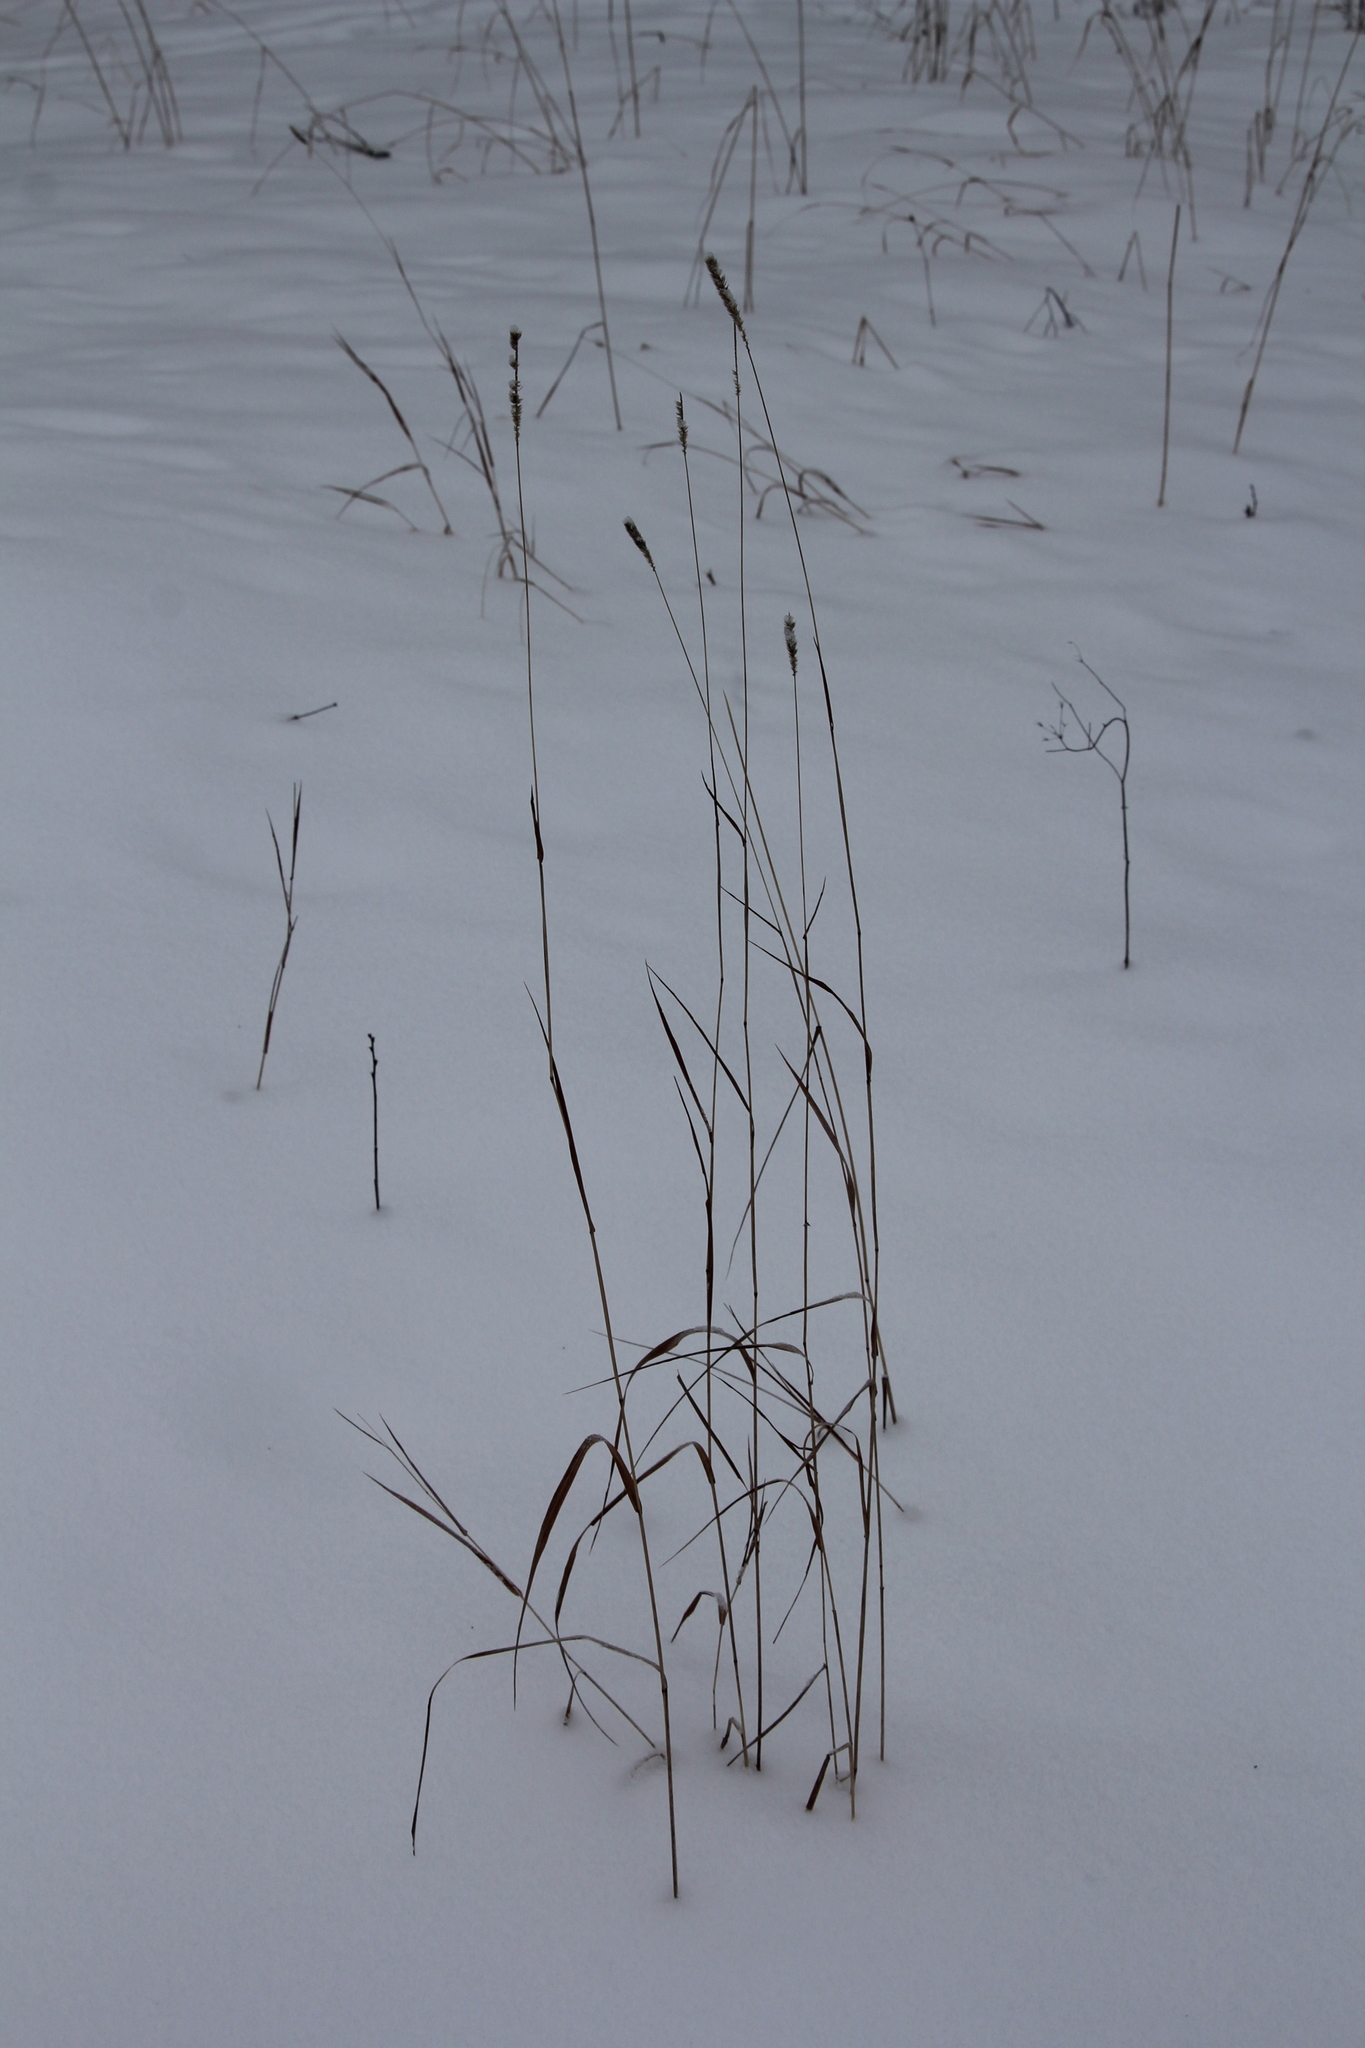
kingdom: Plantae
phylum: Tracheophyta
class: Liliopsida
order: Poales
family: Poaceae
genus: Phleum
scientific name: Phleum phleoides
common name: Purple-stem cat's-tail
